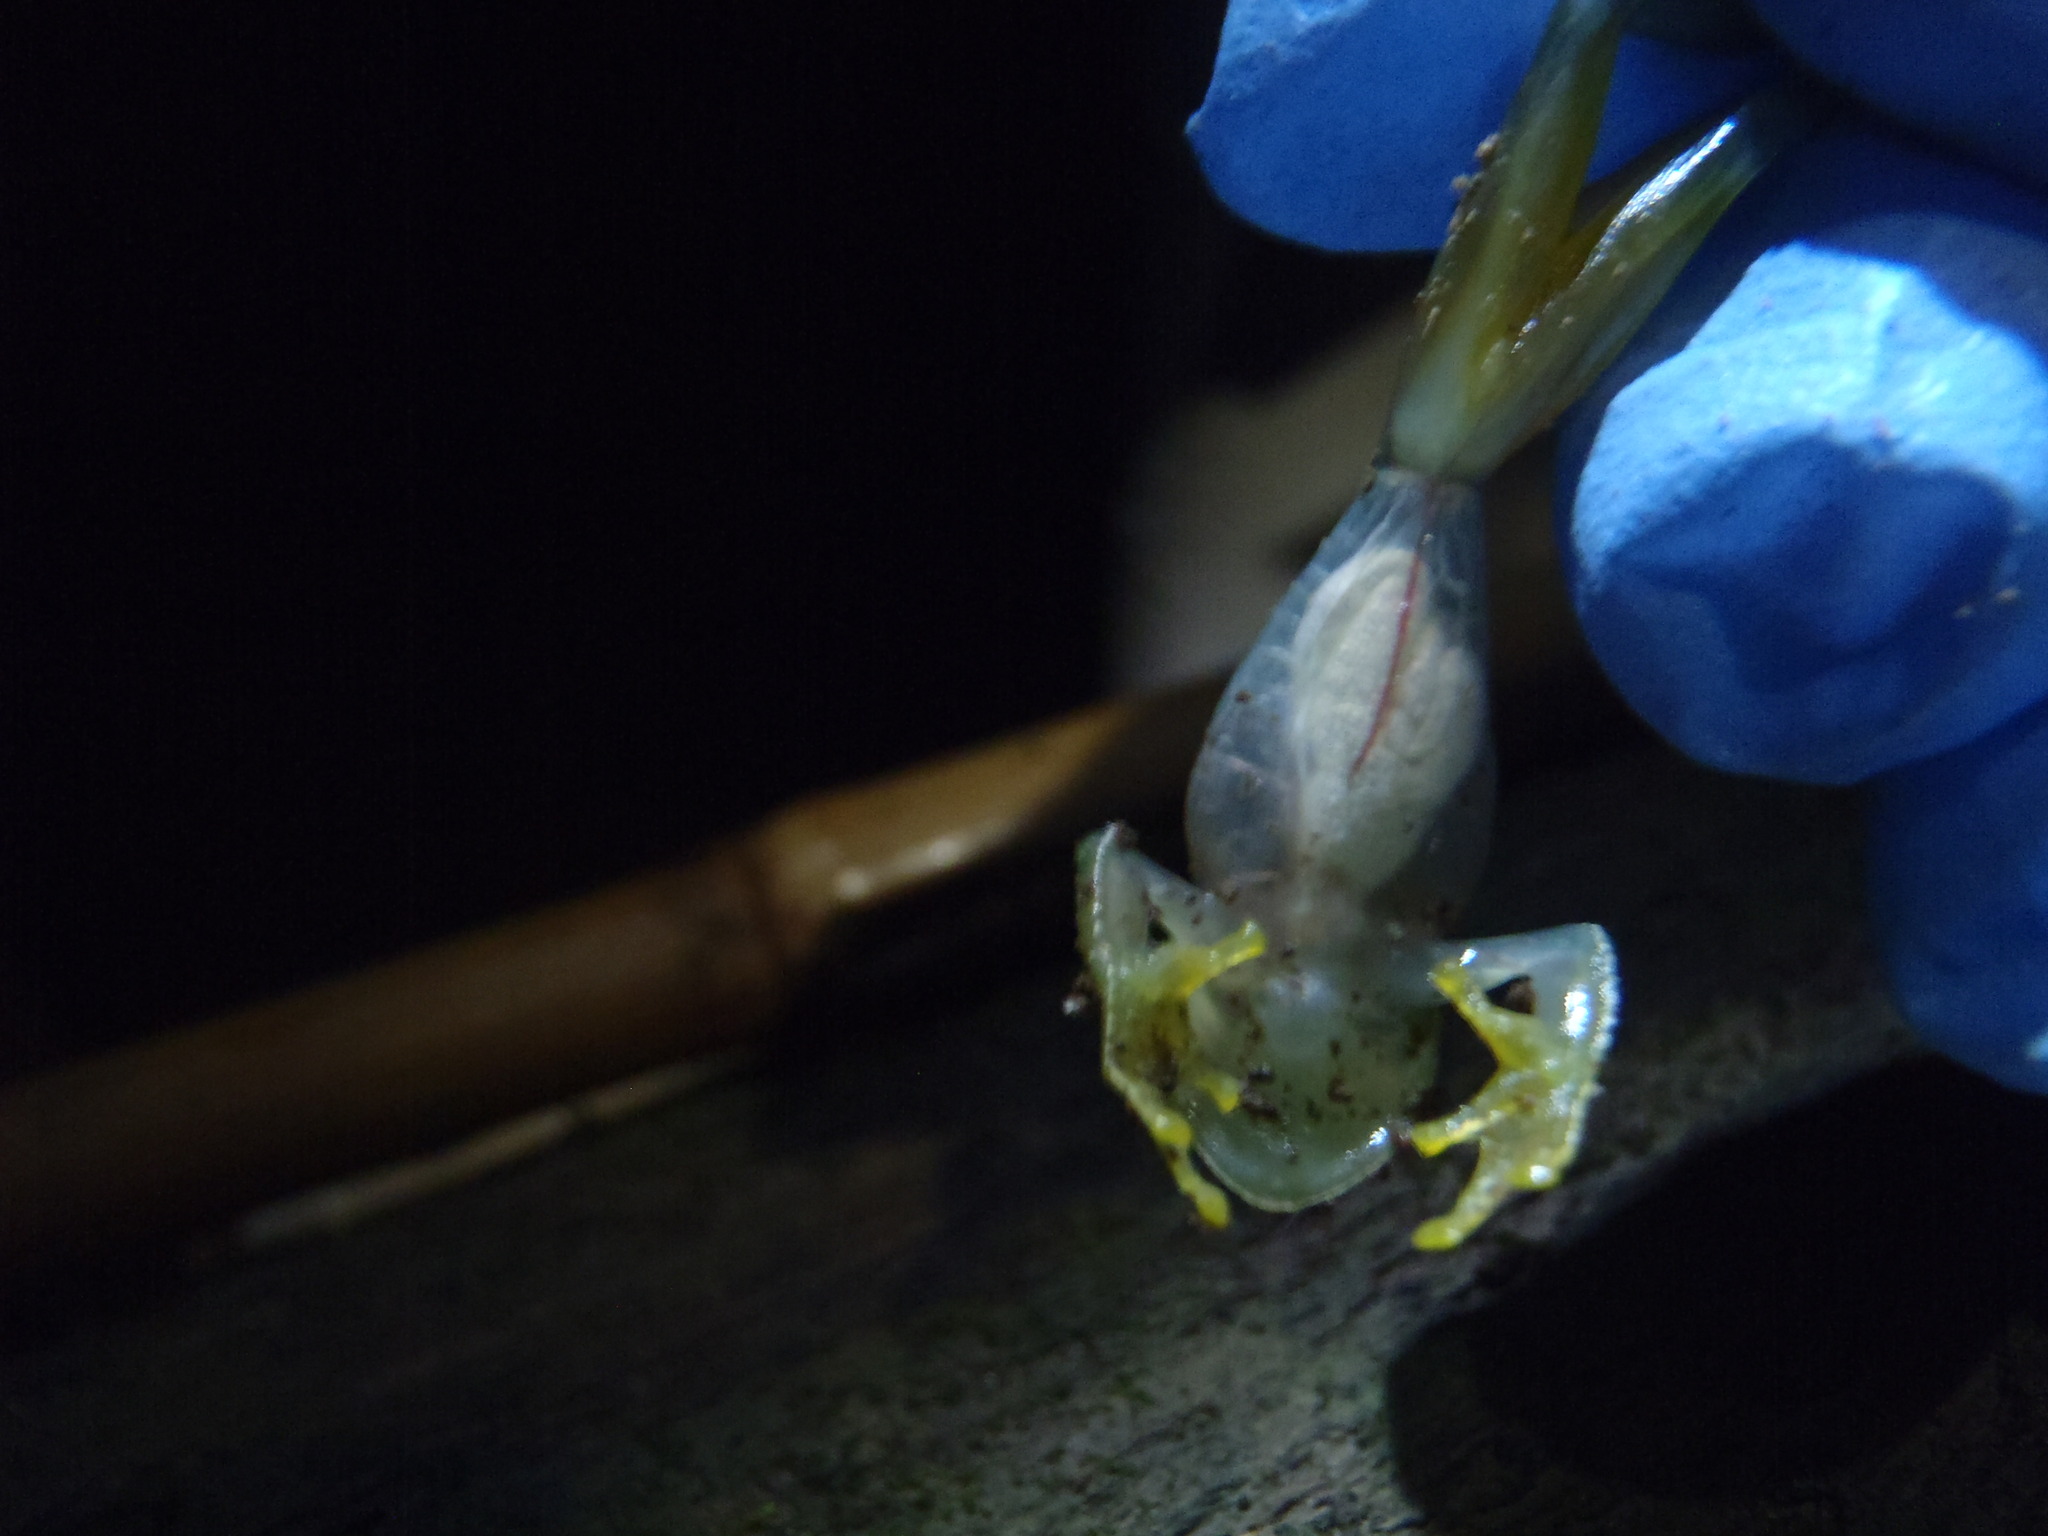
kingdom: Animalia
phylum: Chordata
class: Amphibia
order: Anura
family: Centrolenidae
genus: Teratohyla
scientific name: Teratohyla pulverata
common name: Chiriqui glass frog
